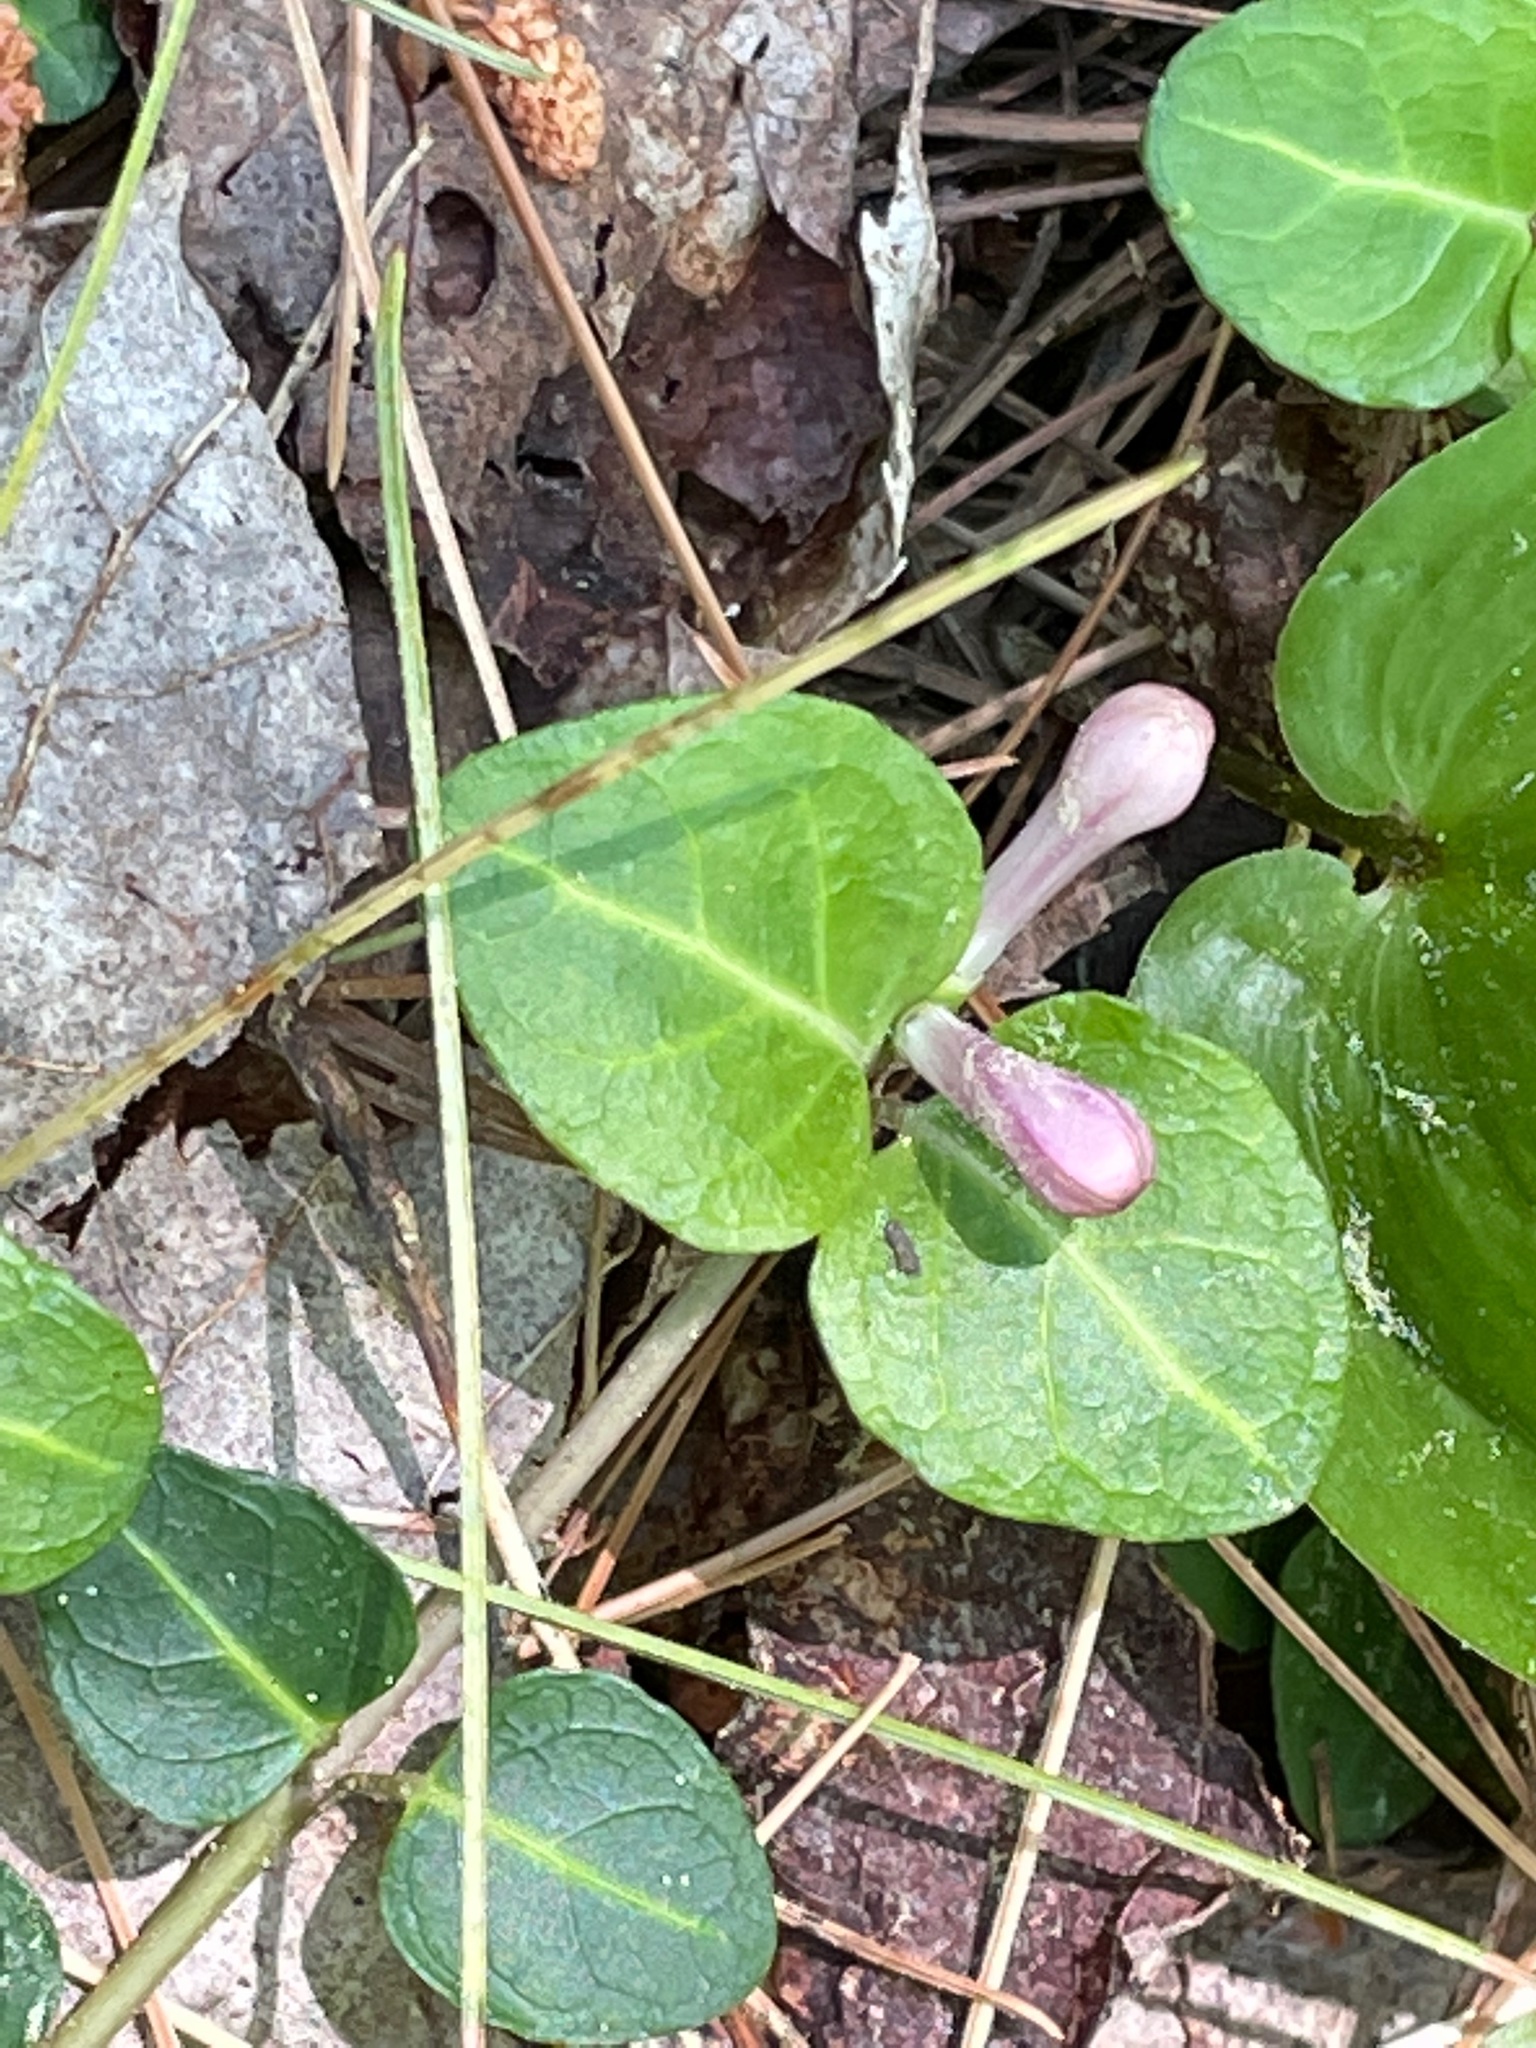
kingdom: Plantae
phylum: Tracheophyta
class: Magnoliopsida
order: Gentianales
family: Rubiaceae
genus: Mitchella
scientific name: Mitchella repens
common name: Partridge-berry
